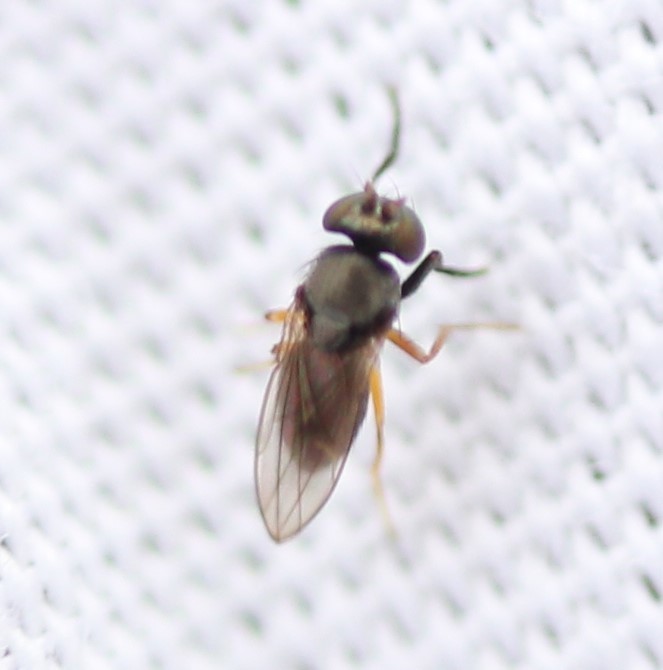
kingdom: Animalia
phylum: Arthropoda
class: Insecta
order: Diptera
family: Ephydridae
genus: Leptopsilopa
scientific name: Leptopsilopa atrimanus
